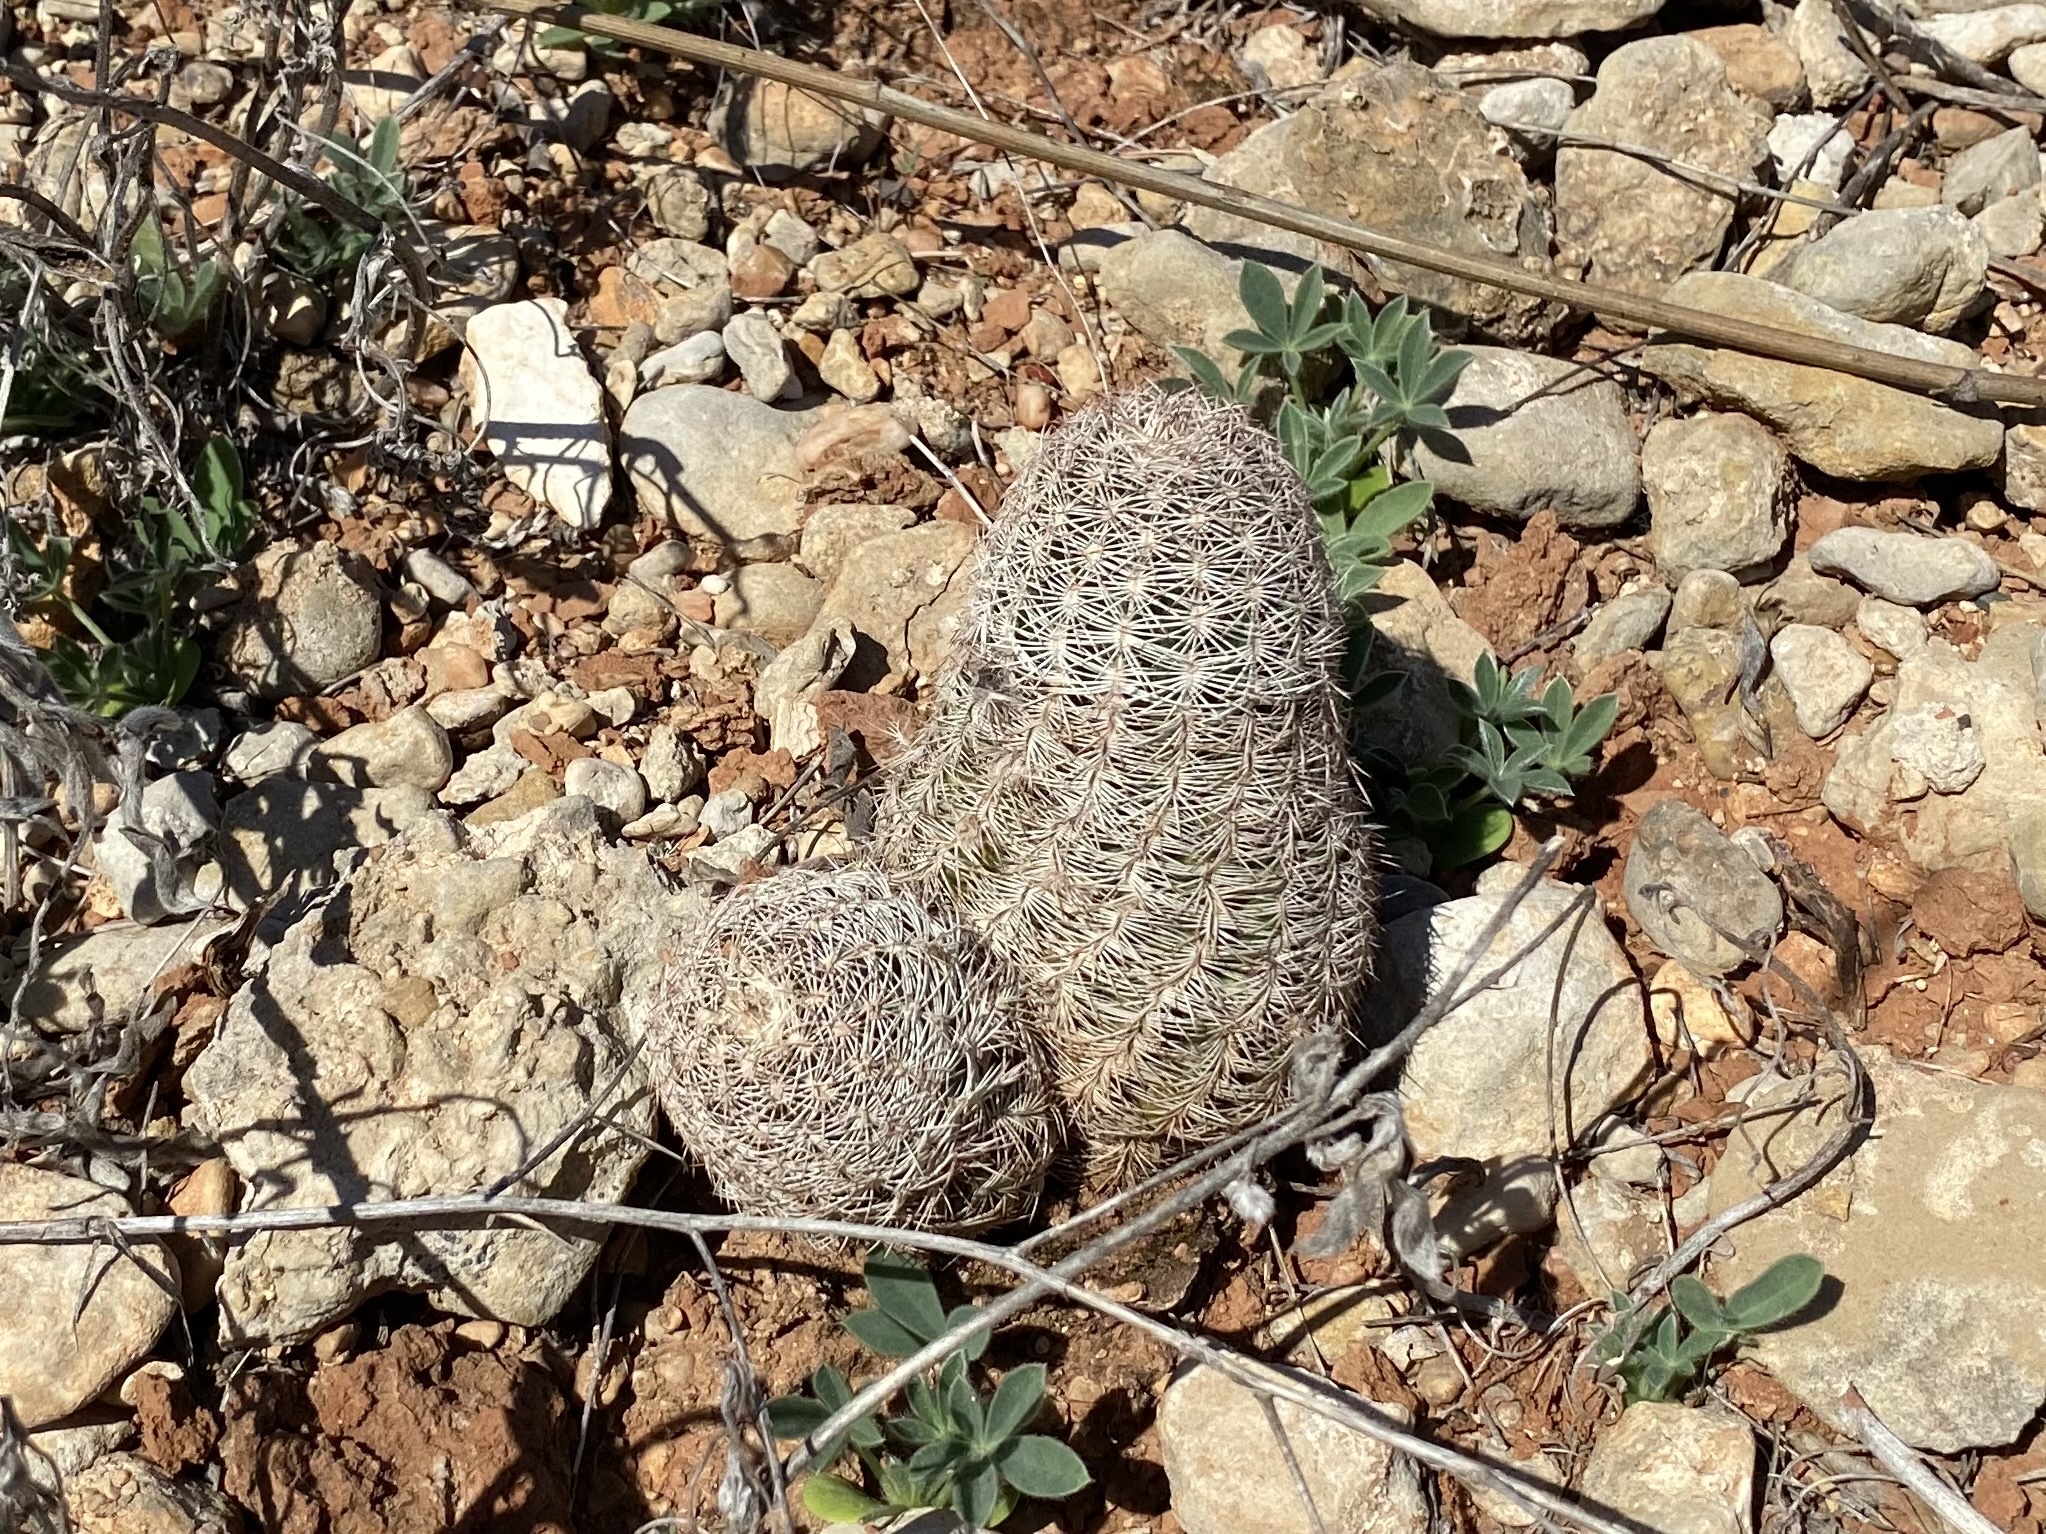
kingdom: Plantae
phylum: Tracheophyta
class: Magnoliopsida
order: Caryophyllales
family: Cactaceae
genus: Echinocereus
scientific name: Echinocereus reichenbachii
